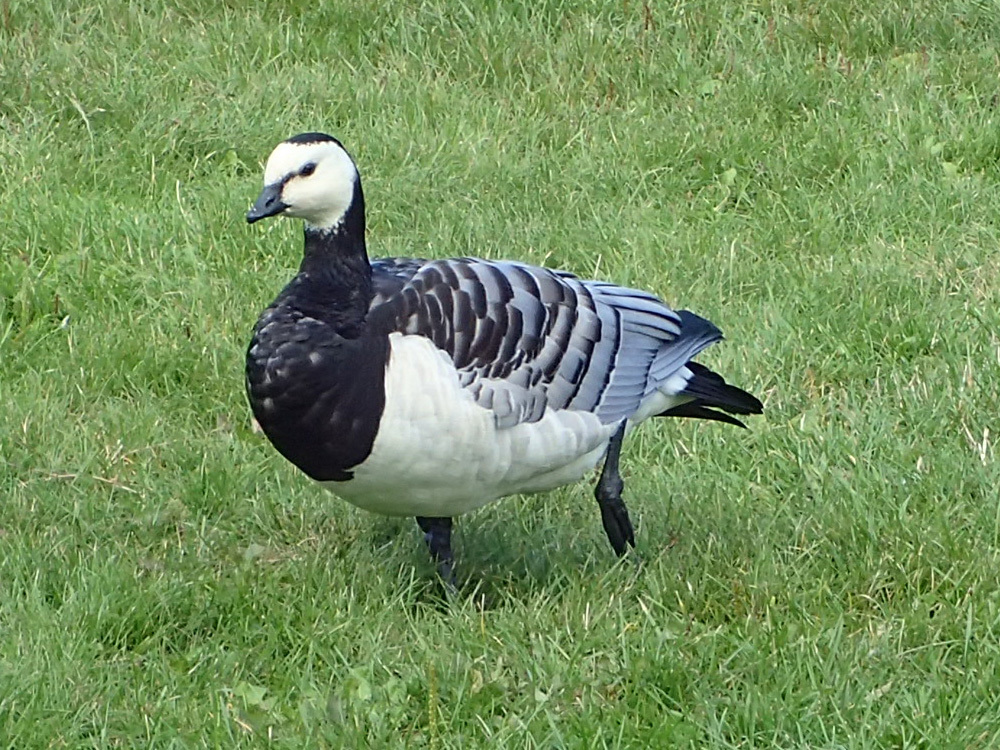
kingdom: Animalia
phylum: Chordata
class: Aves
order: Anseriformes
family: Anatidae
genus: Branta
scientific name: Branta leucopsis
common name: Barnacle goose
